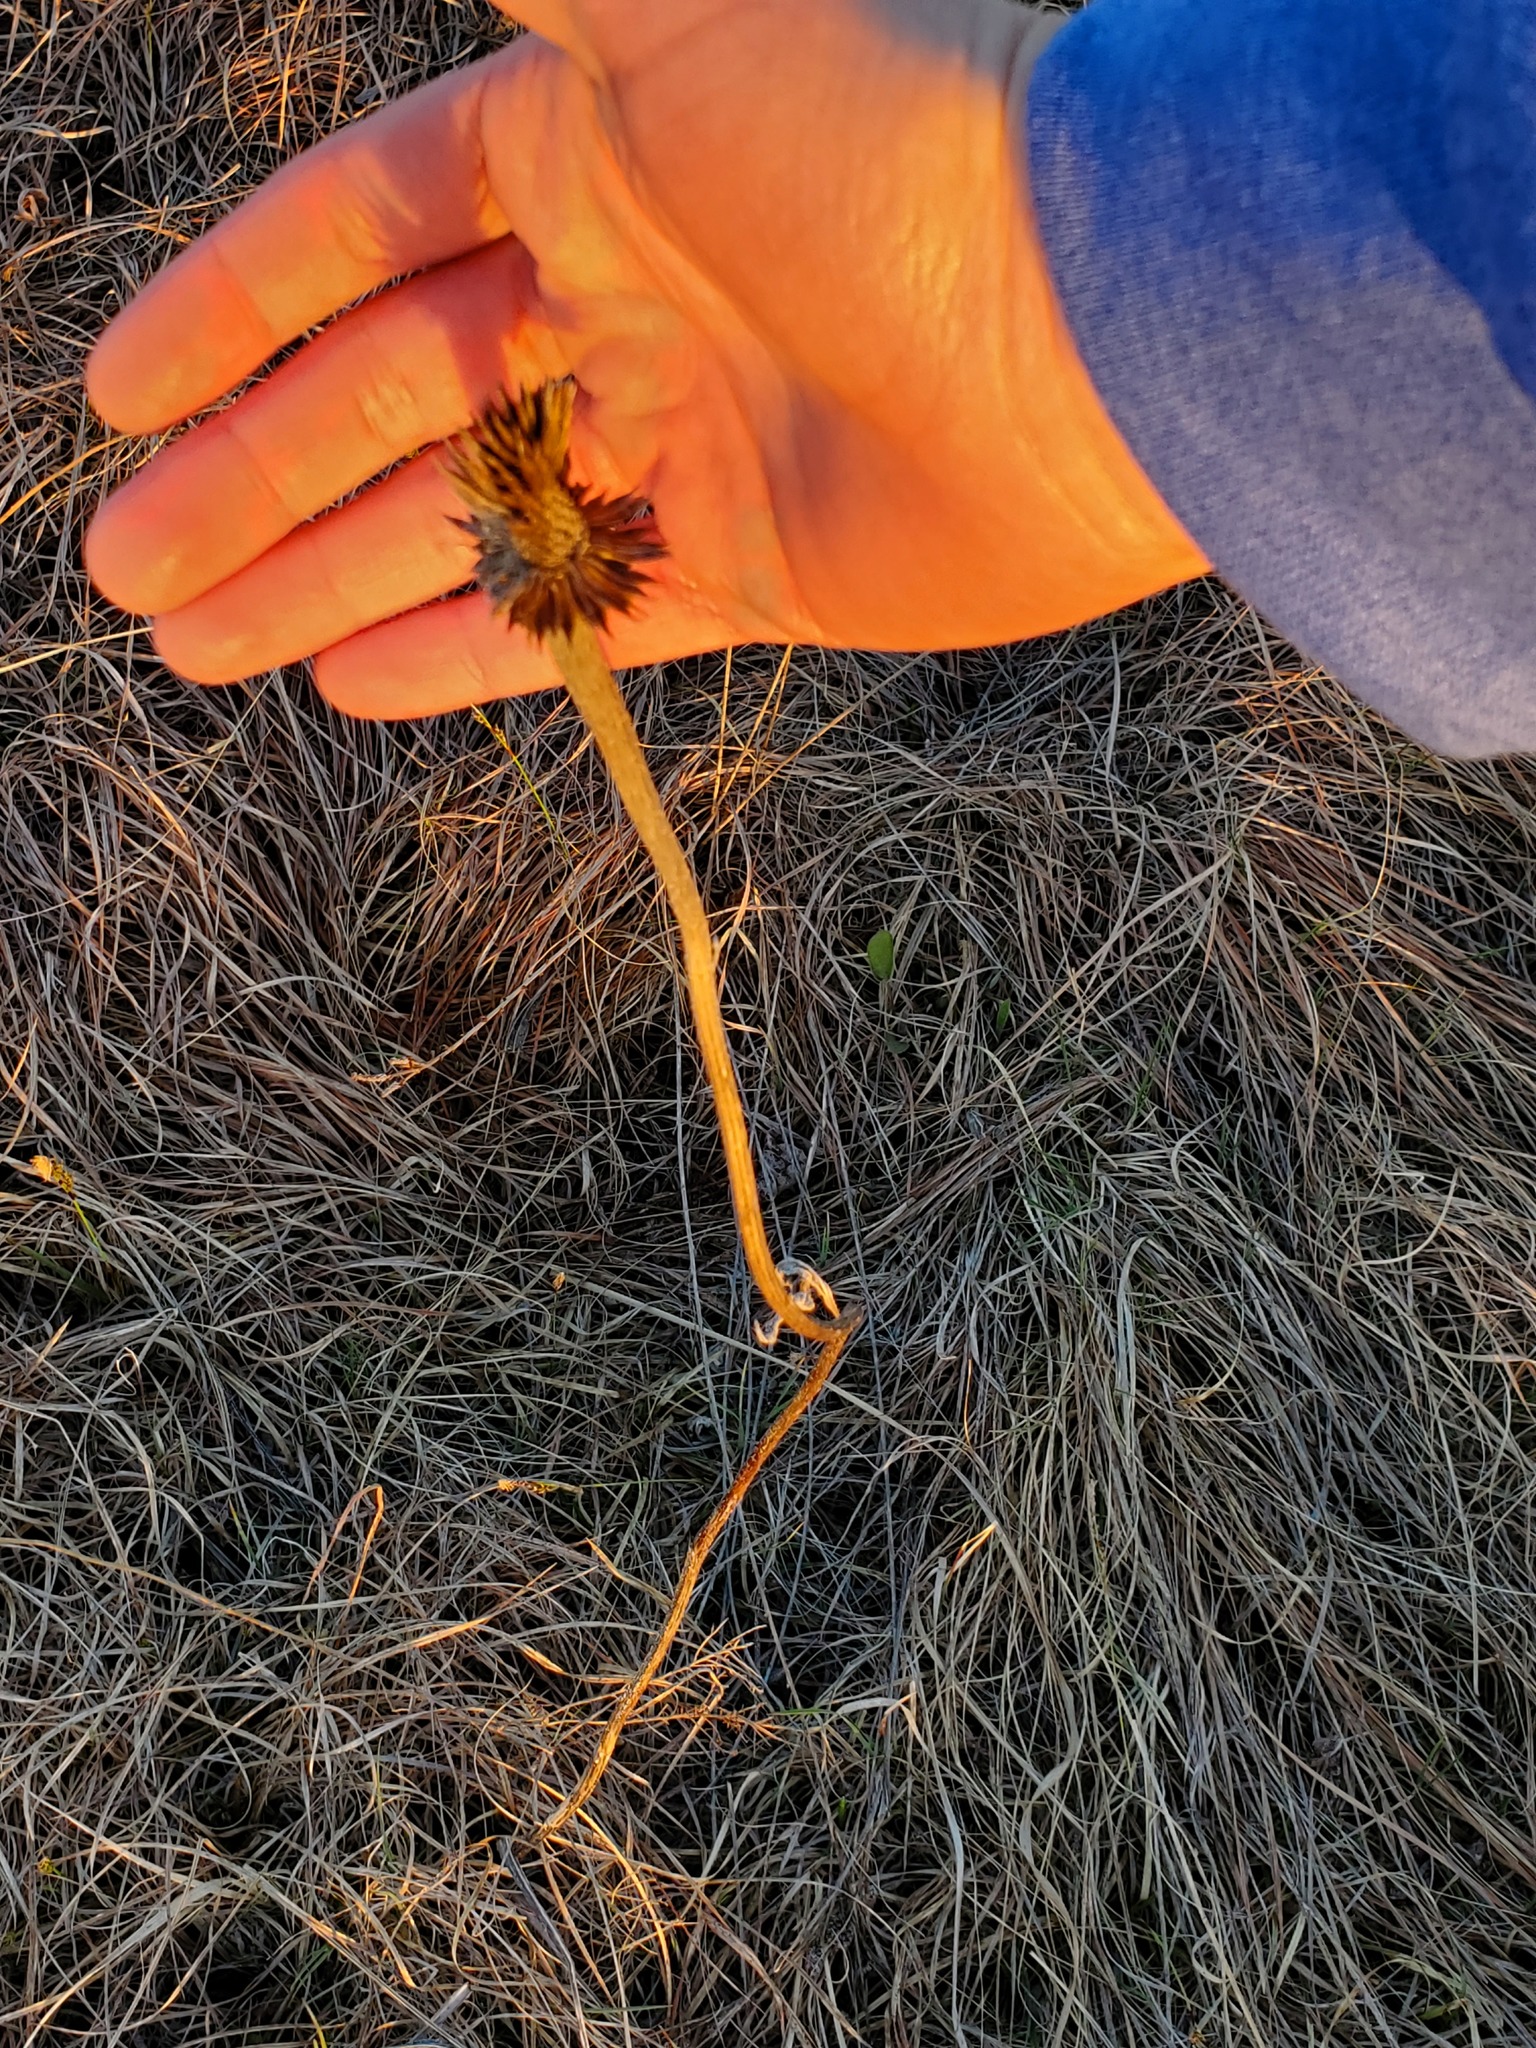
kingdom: Plantae
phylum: Tracheophyta
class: Magnoliopsida
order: Asterales
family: Asteraceae
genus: Echinacea
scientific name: Echinacea pallida
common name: Pale echinacea
